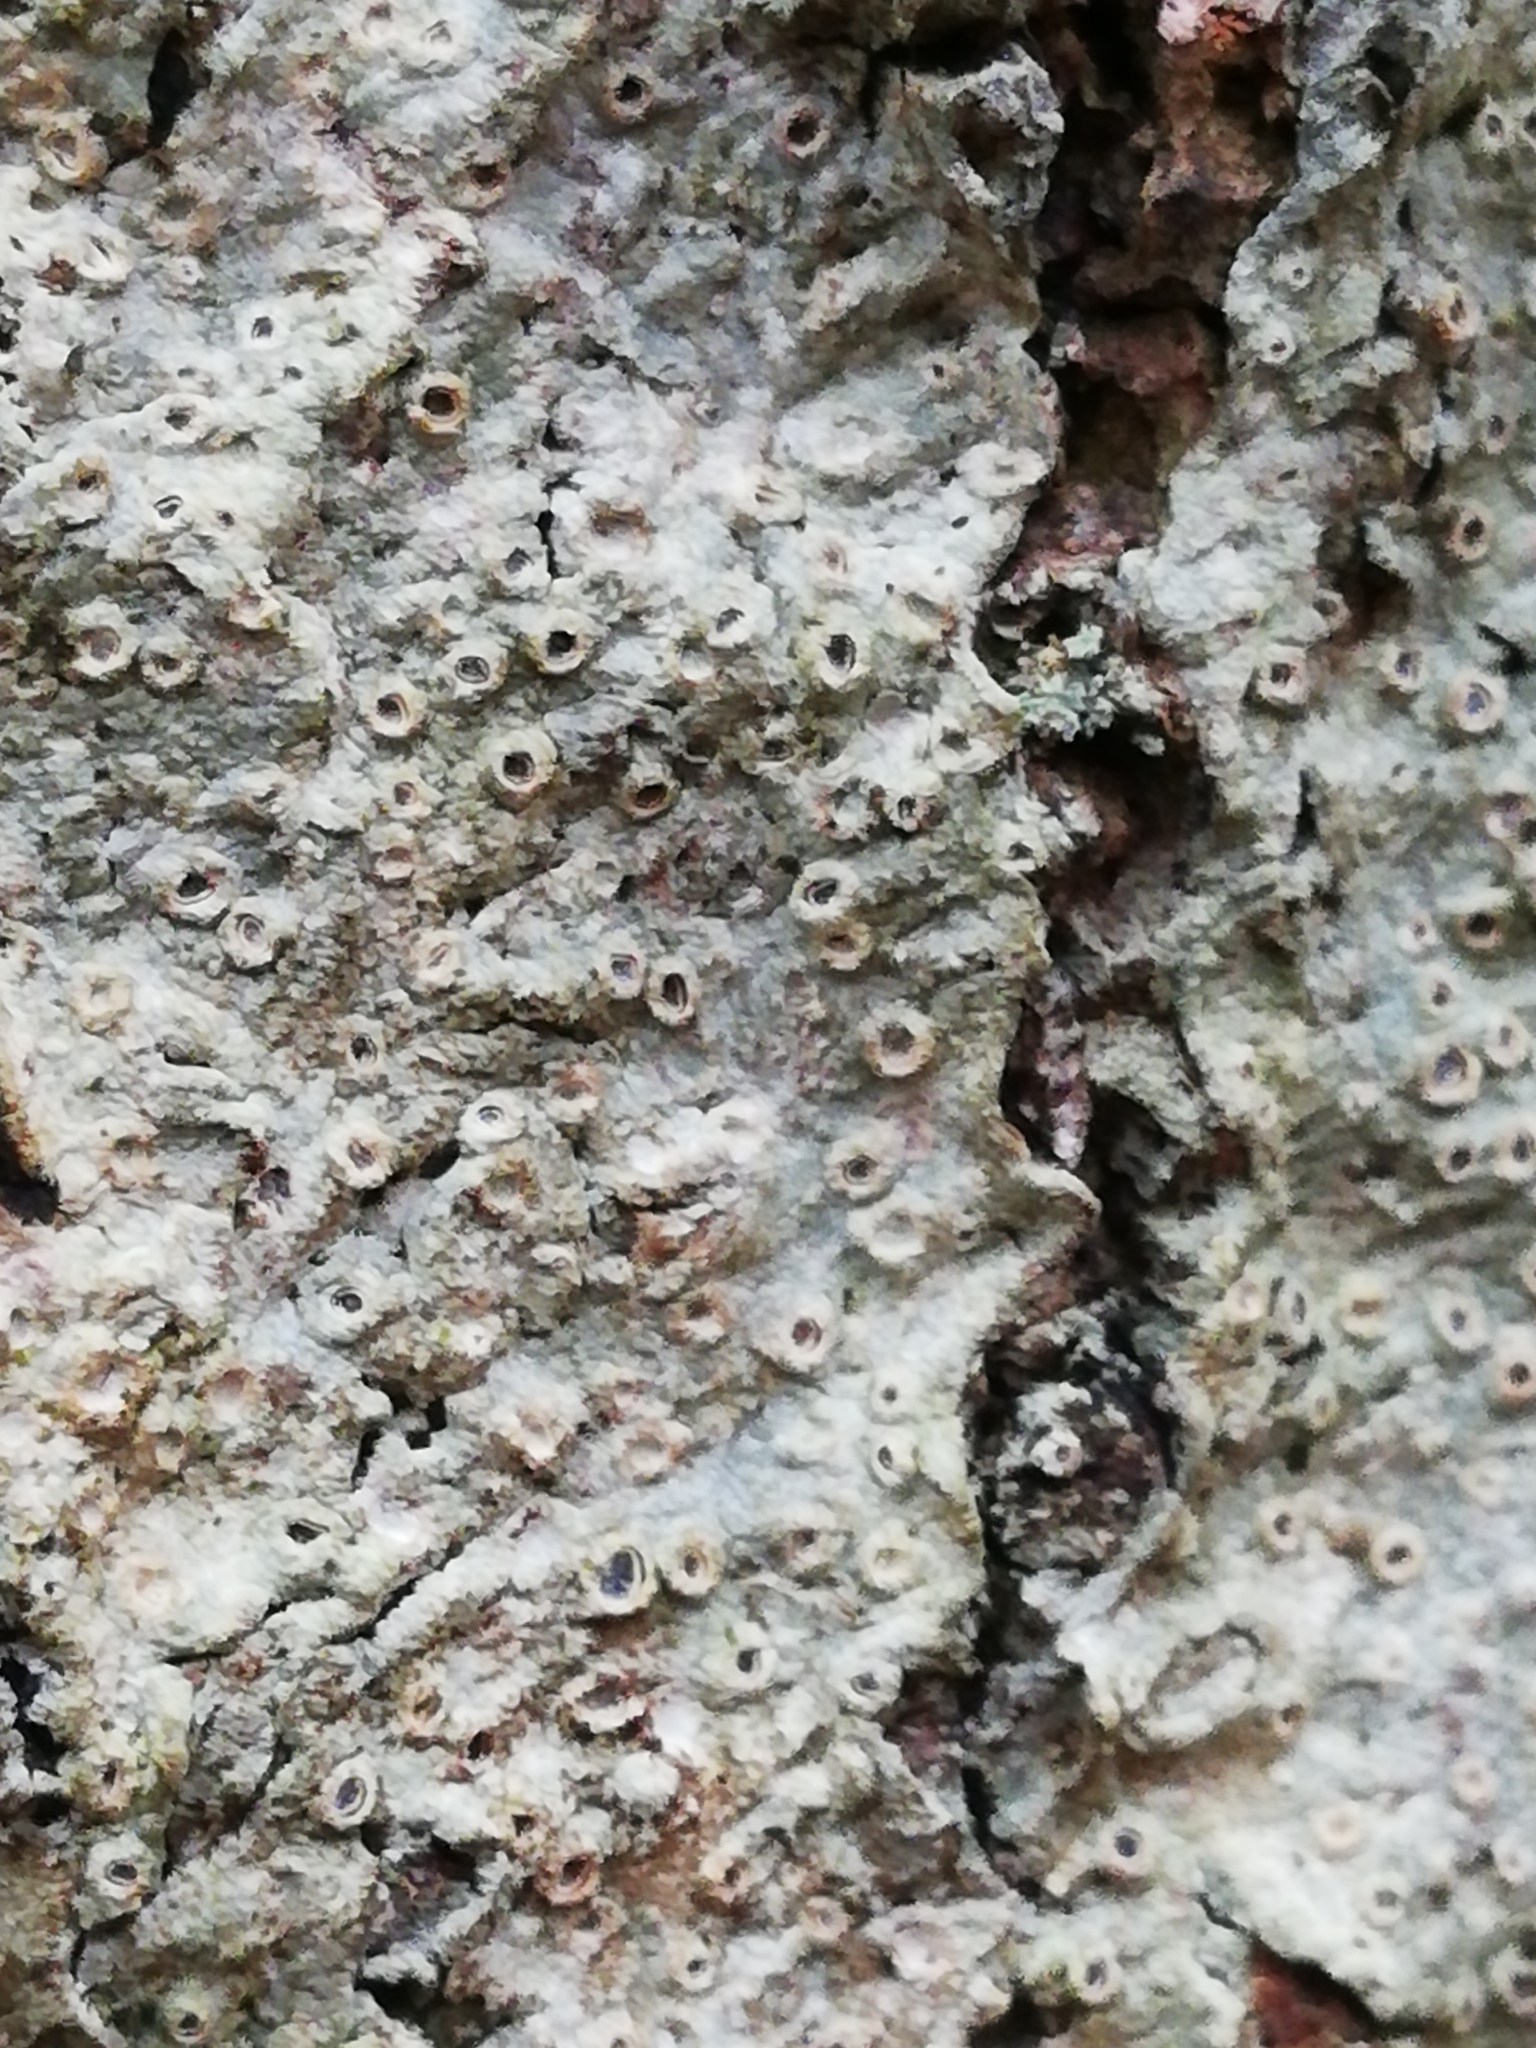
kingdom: Fungi
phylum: Ascomycota
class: Lecanoromycetes
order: Ostropales
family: Graphidaceae
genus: Thelotrema
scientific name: Thelotrema lepadinum
